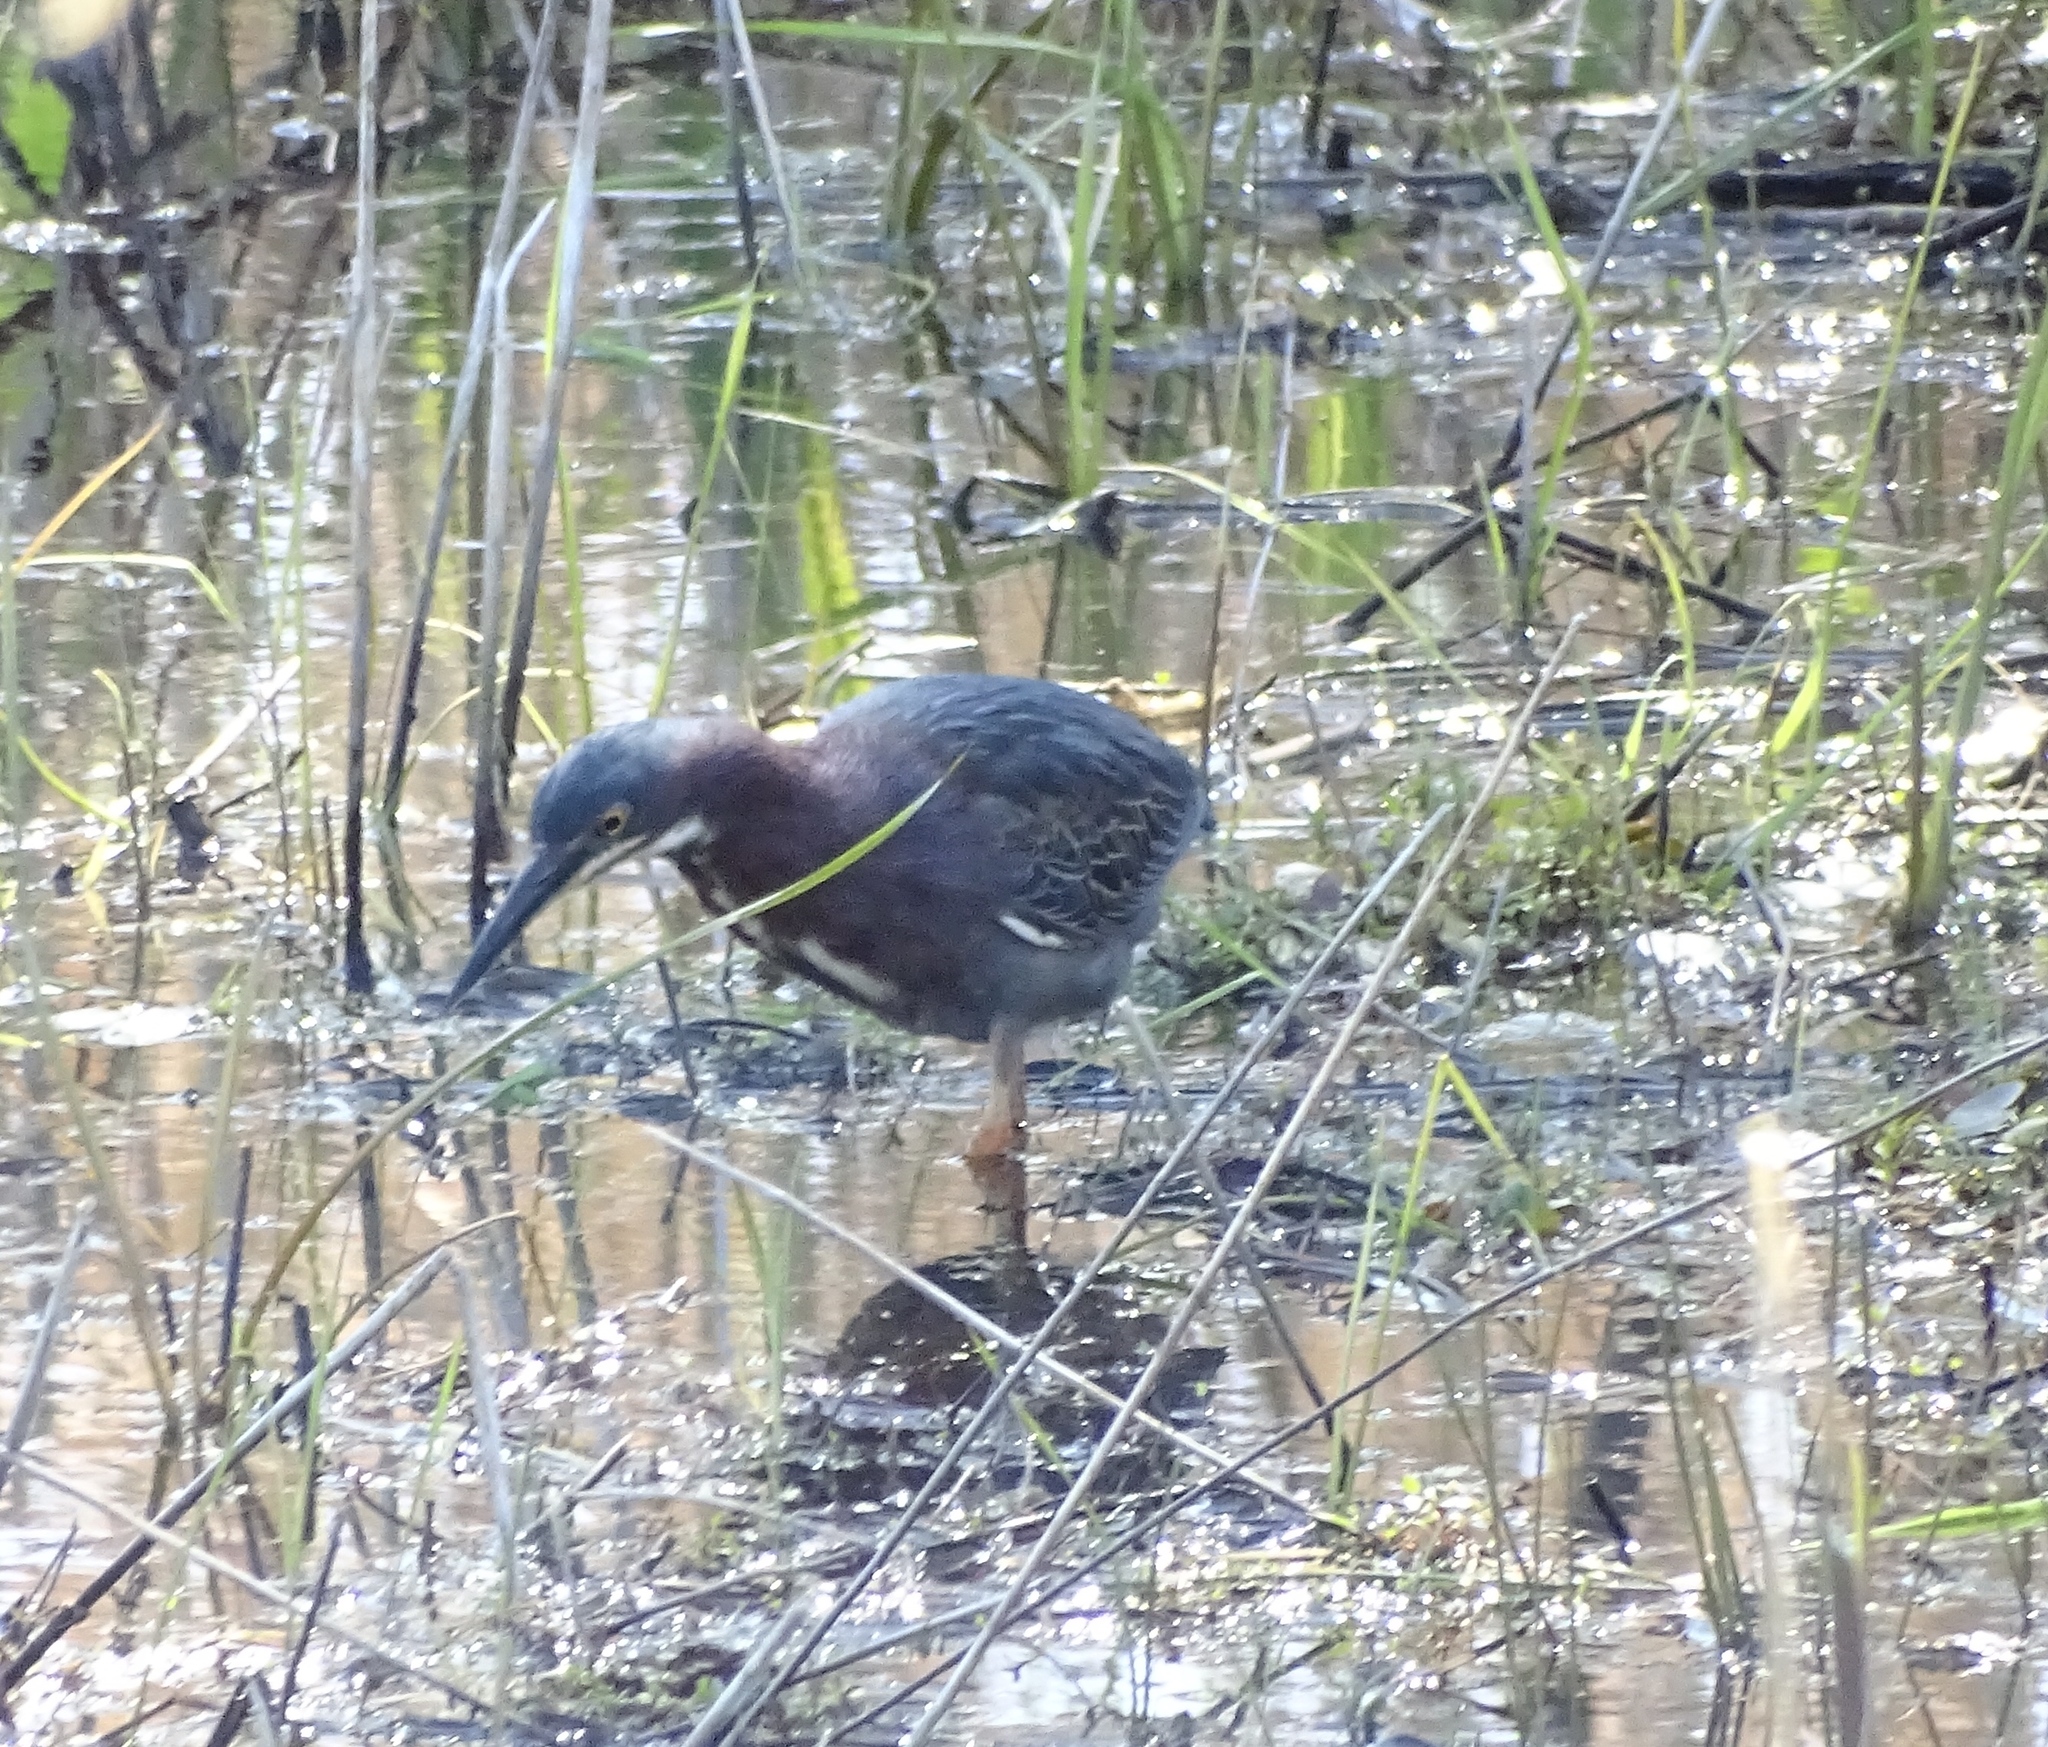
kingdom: Animalia
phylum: Chordata
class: Aves
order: Pelecaniformes
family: Ardeidae
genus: Butorides
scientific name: Butorides virescens
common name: Green heron
